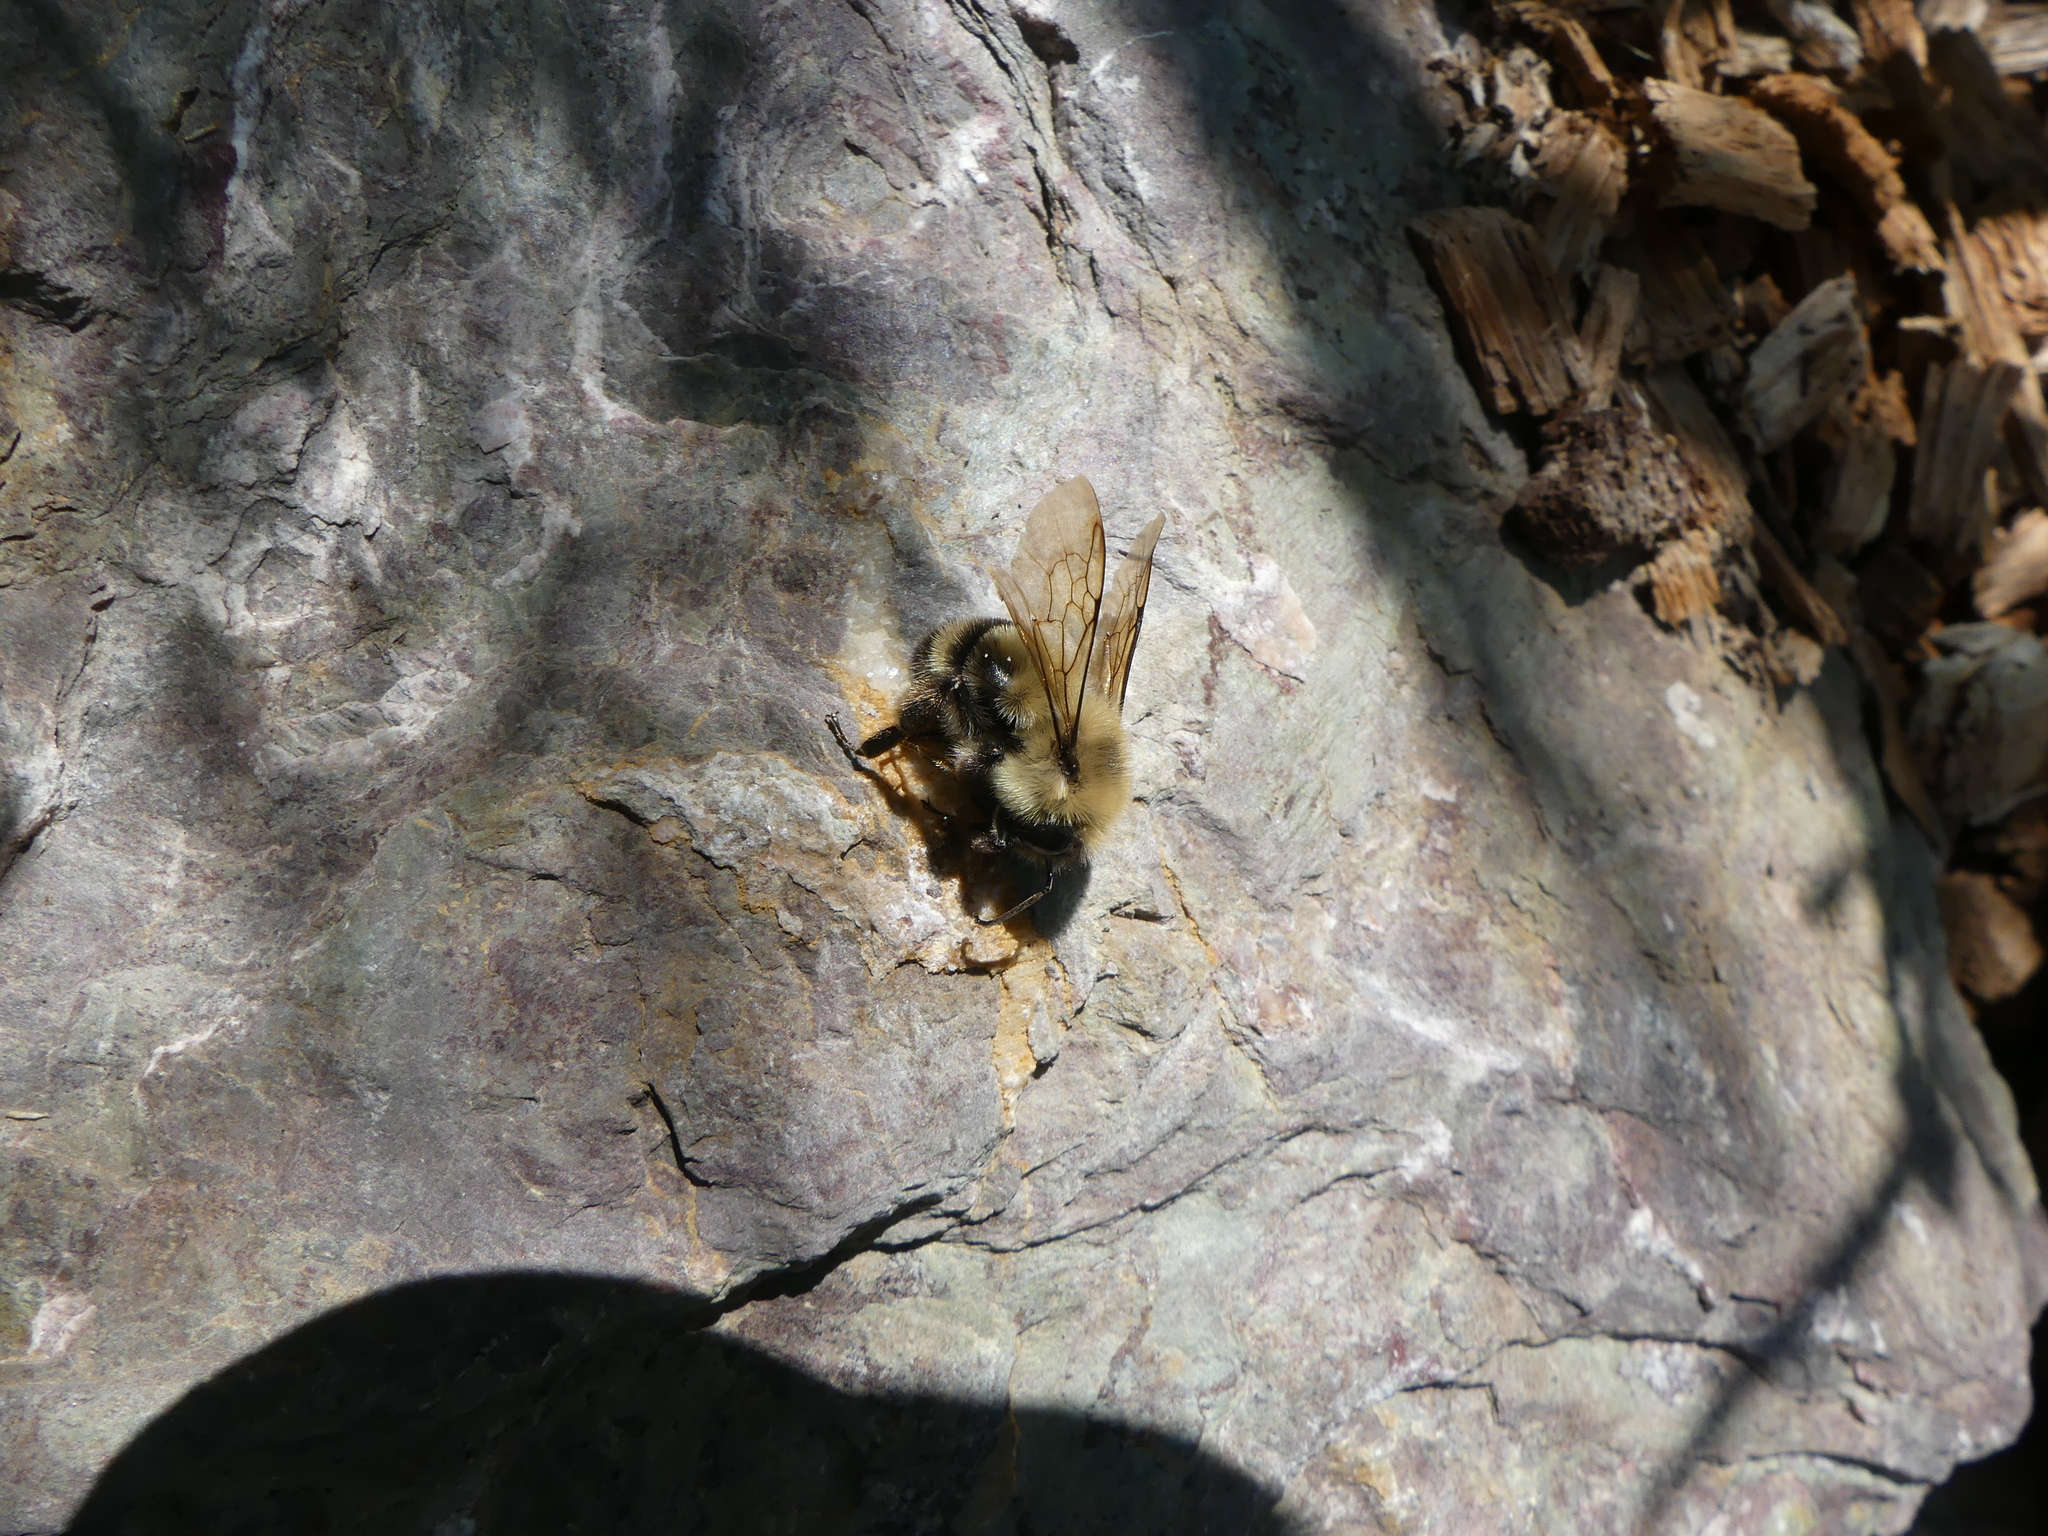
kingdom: Animalia
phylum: Arthropoda
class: Insecta
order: Hymenoptera
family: Apidae
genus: Bombus
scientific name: Bombus bimaculatus
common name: Two-spotted bumble bee
